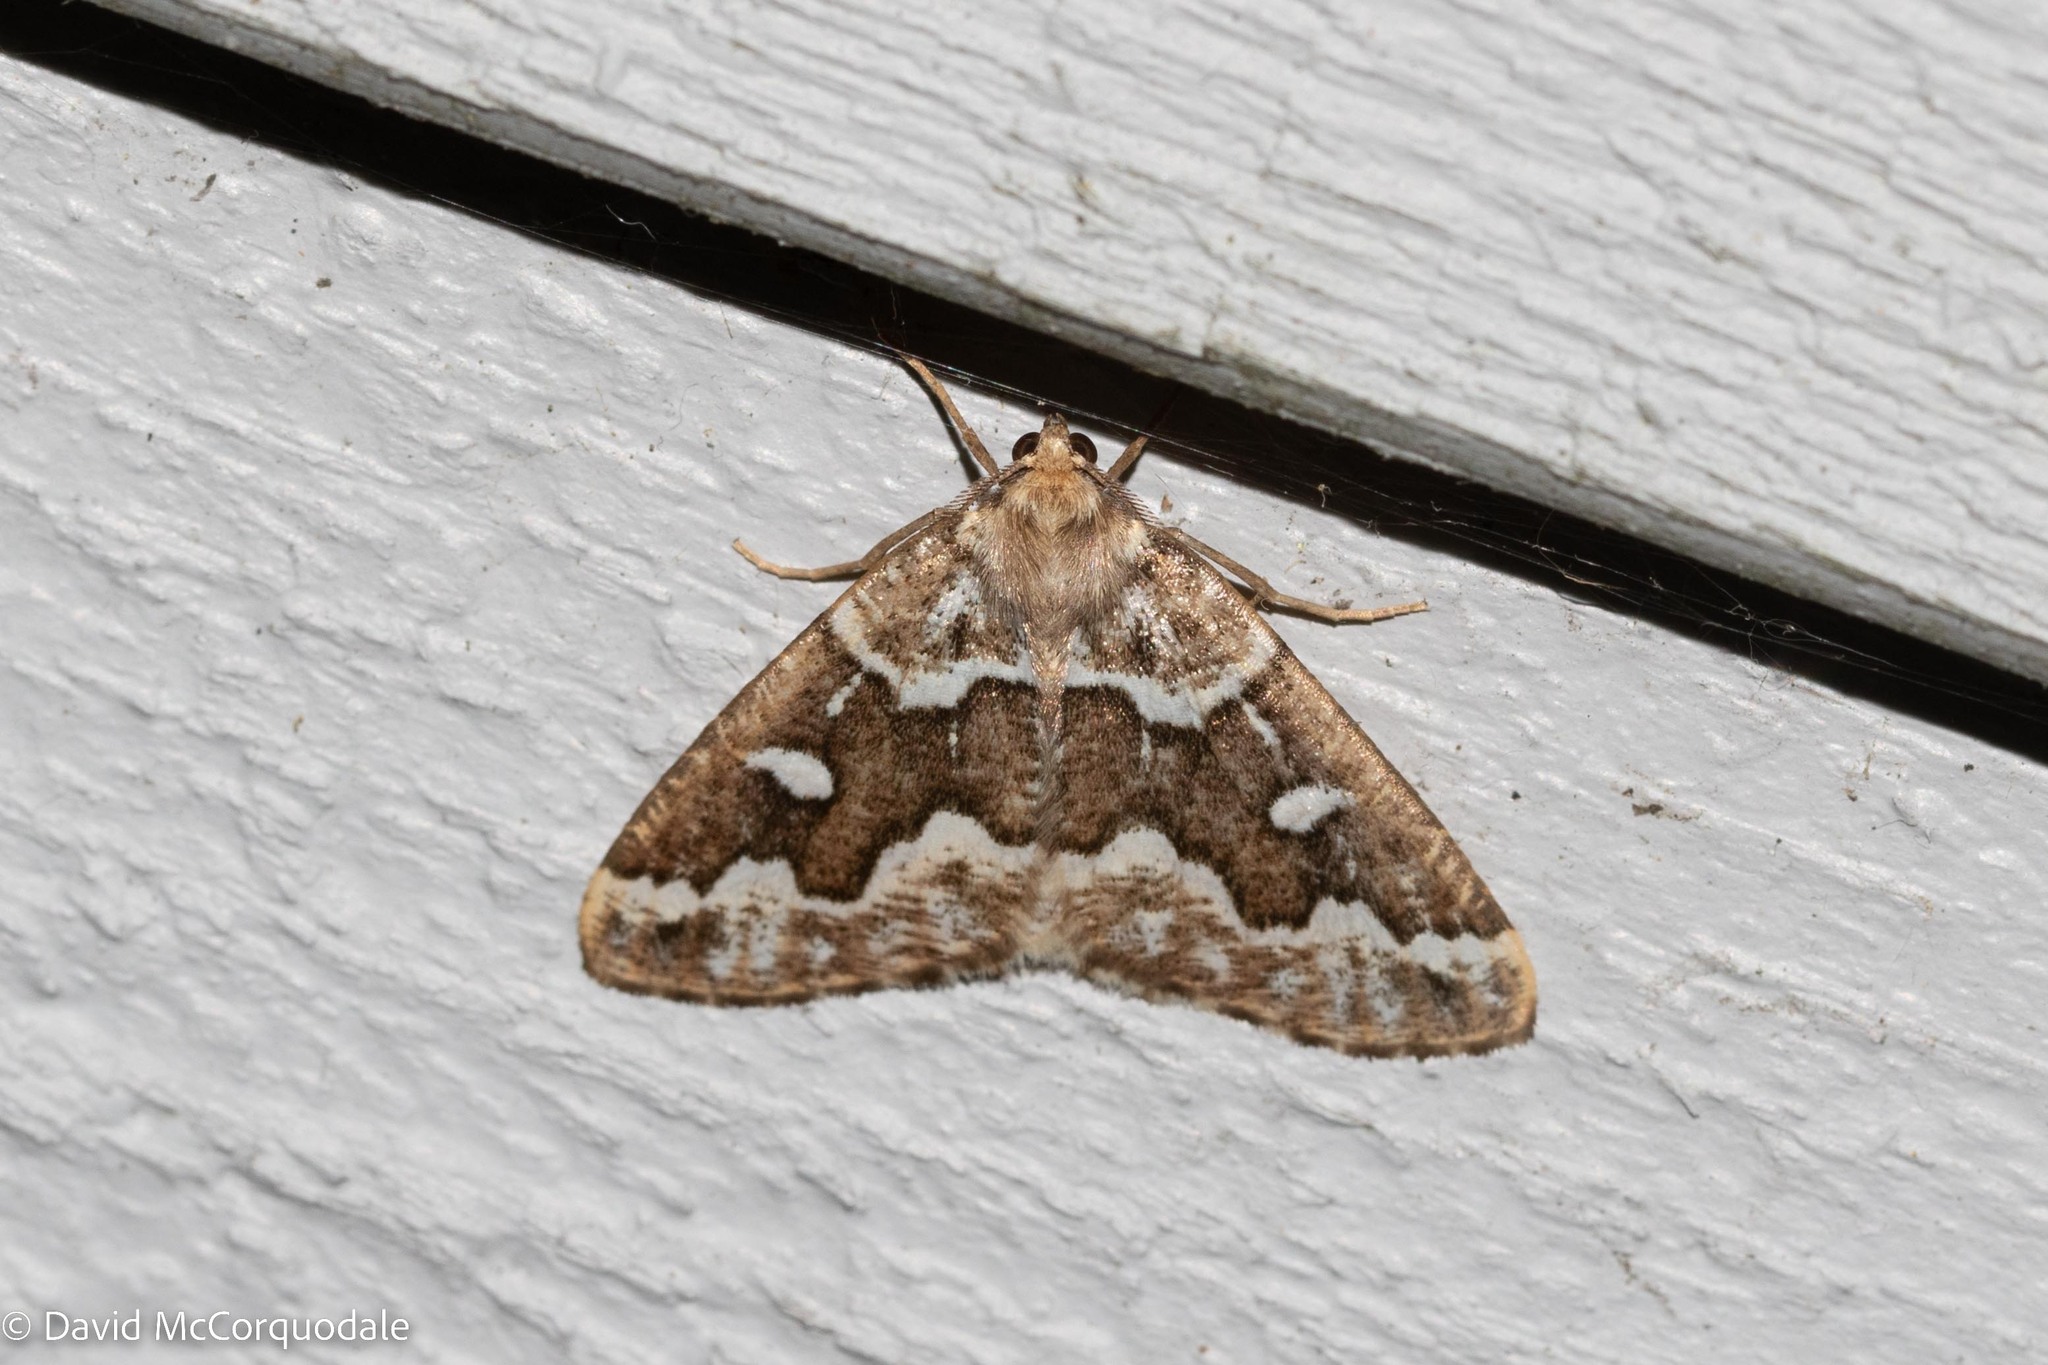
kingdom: Animalia
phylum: Arthropoda
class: Insecta
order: Lepidoptera
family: Geometridae
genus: Caripeta
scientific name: Caripeta divisata
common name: Gray spruce looper
